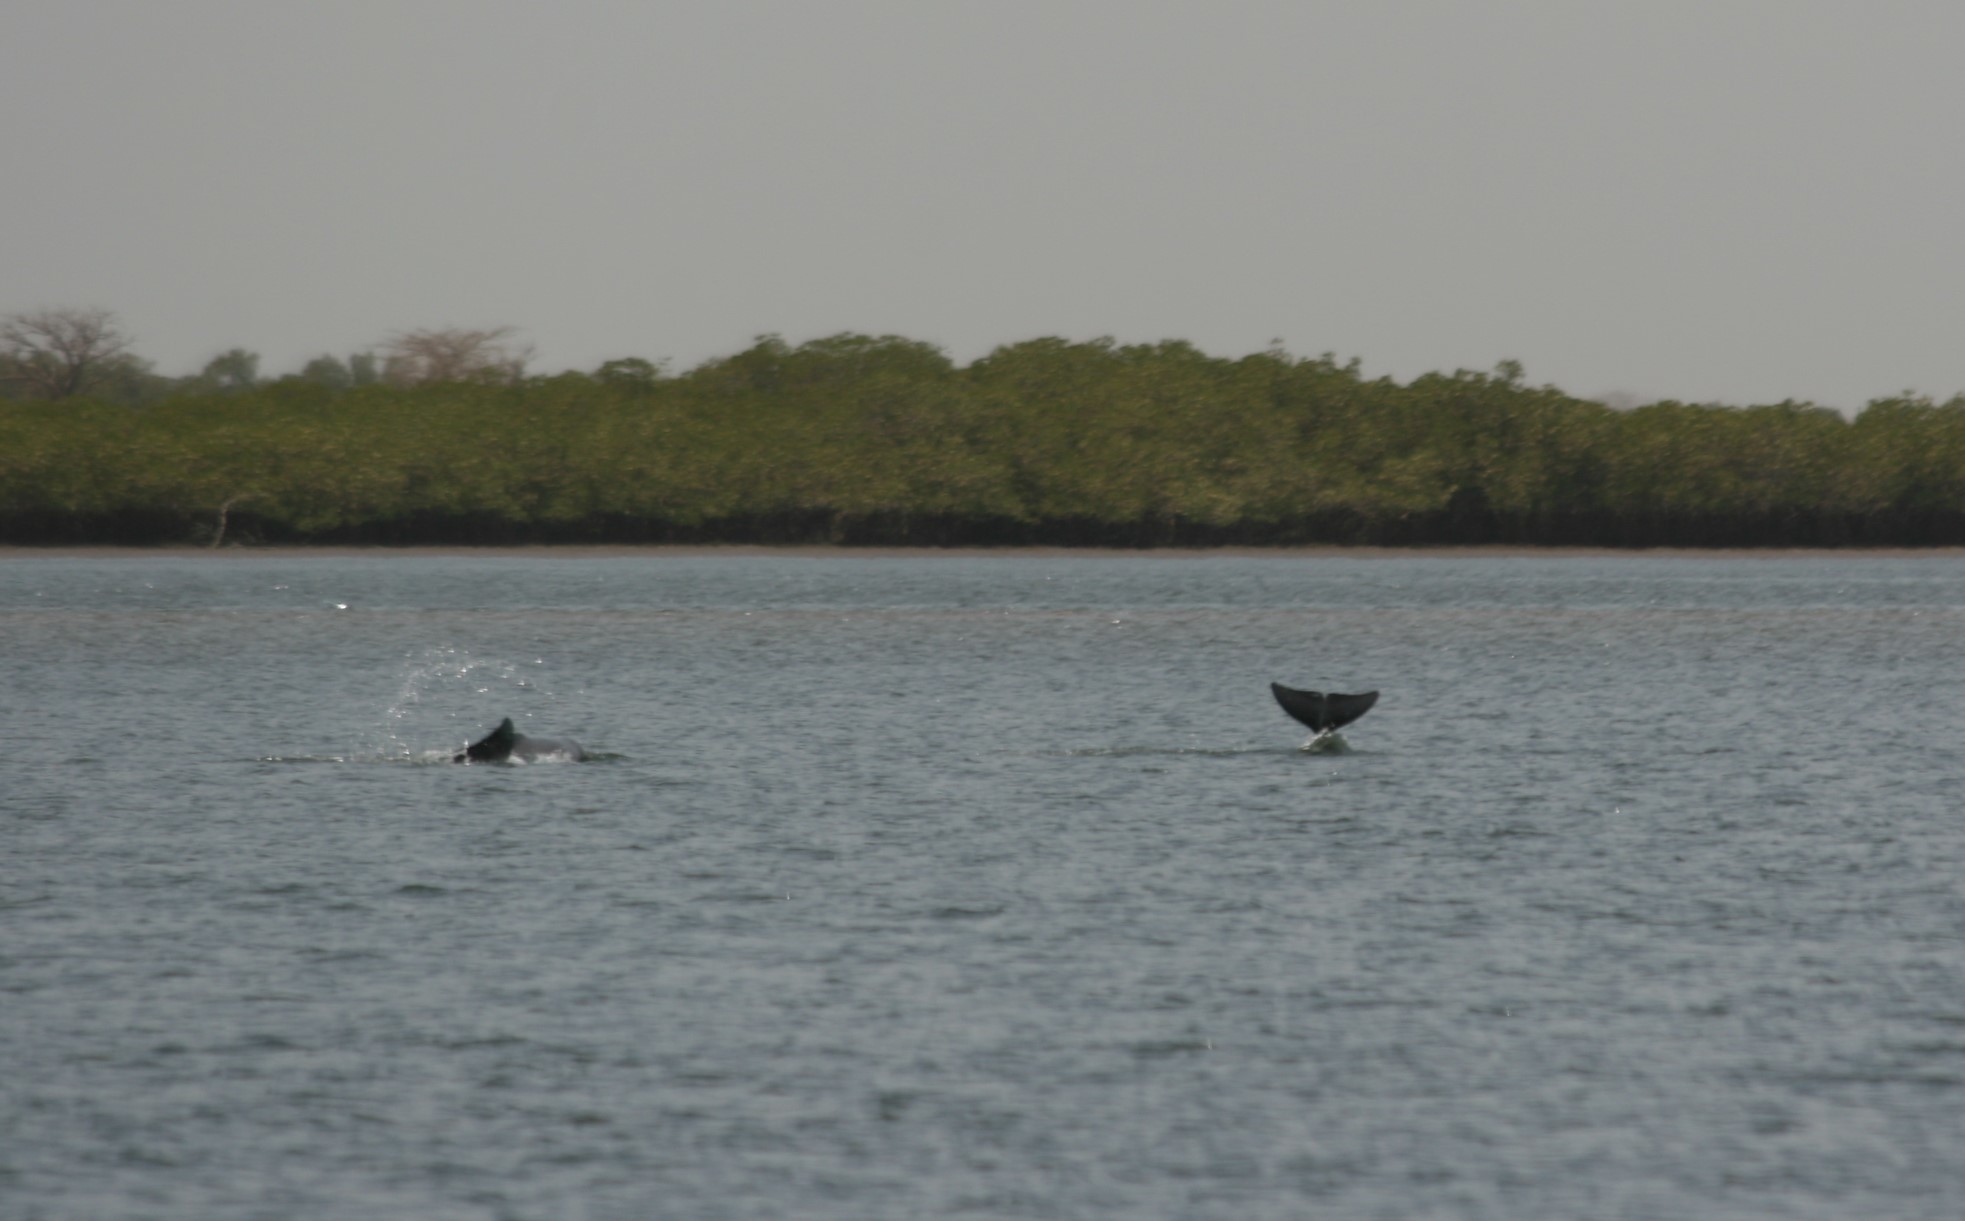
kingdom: Animalia
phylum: Chordata
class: Mammalia
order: Cetacea
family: Delphinidae
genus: Sousa
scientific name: Sousa teuszii
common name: Atlantic humpbacked dolphin
